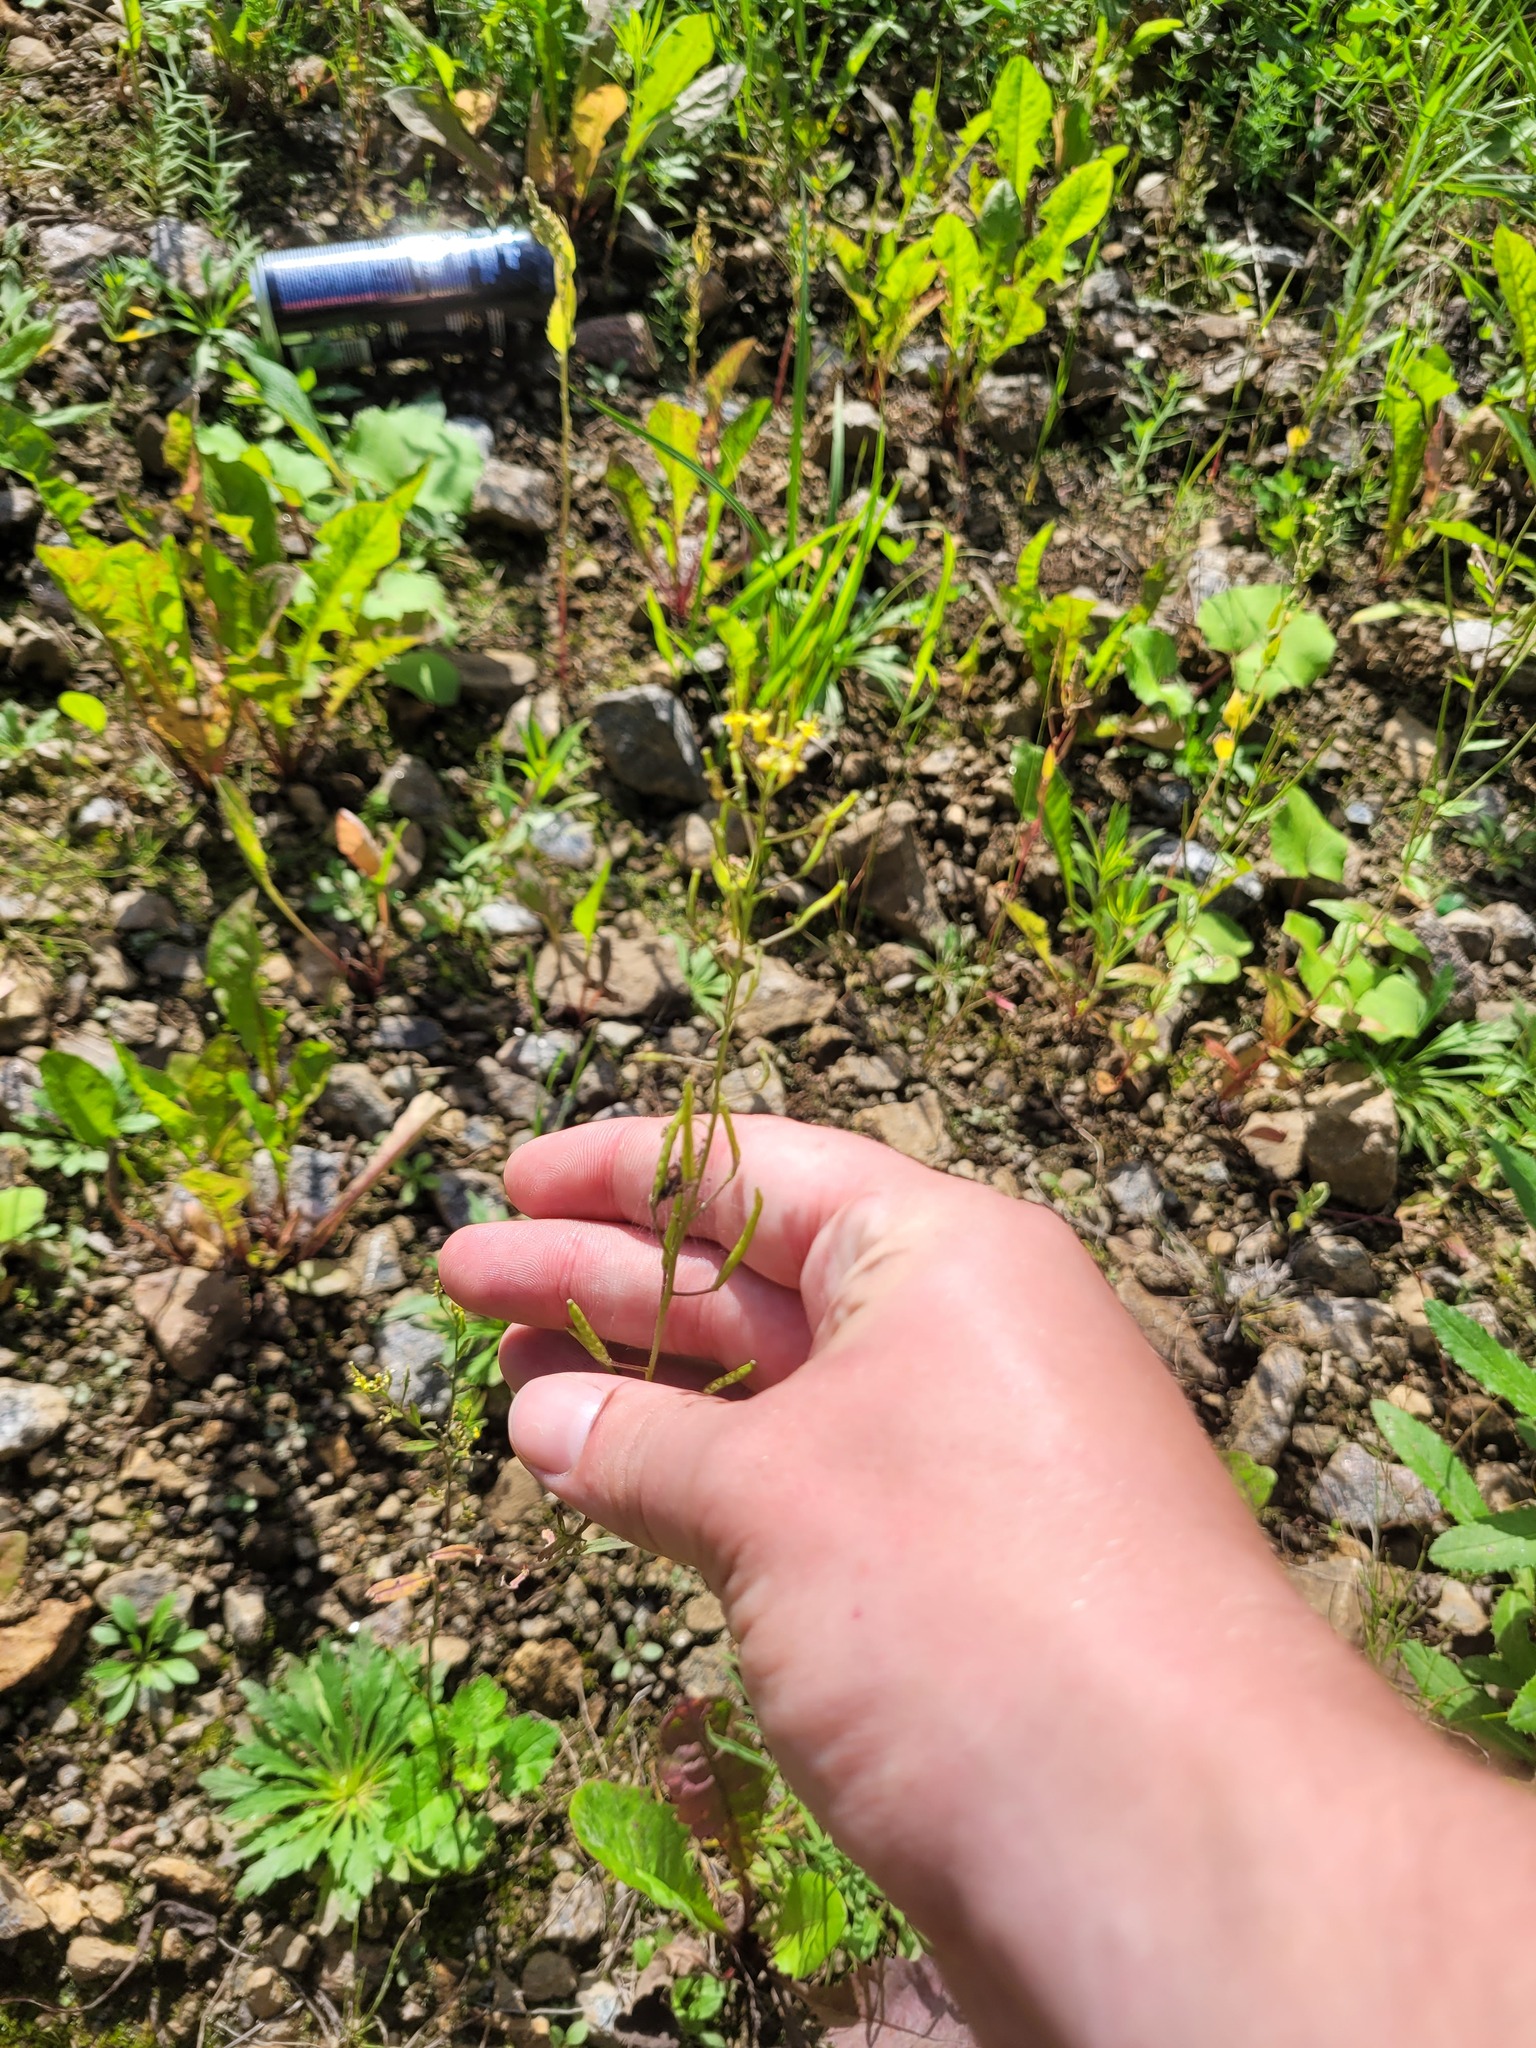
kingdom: Plantae
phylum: Tracheophyta
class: Magnoliopsida
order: Brassicales
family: Brassicaceae
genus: Erysimum
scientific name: Erysimum cheiranthoides
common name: Treacle mustard
